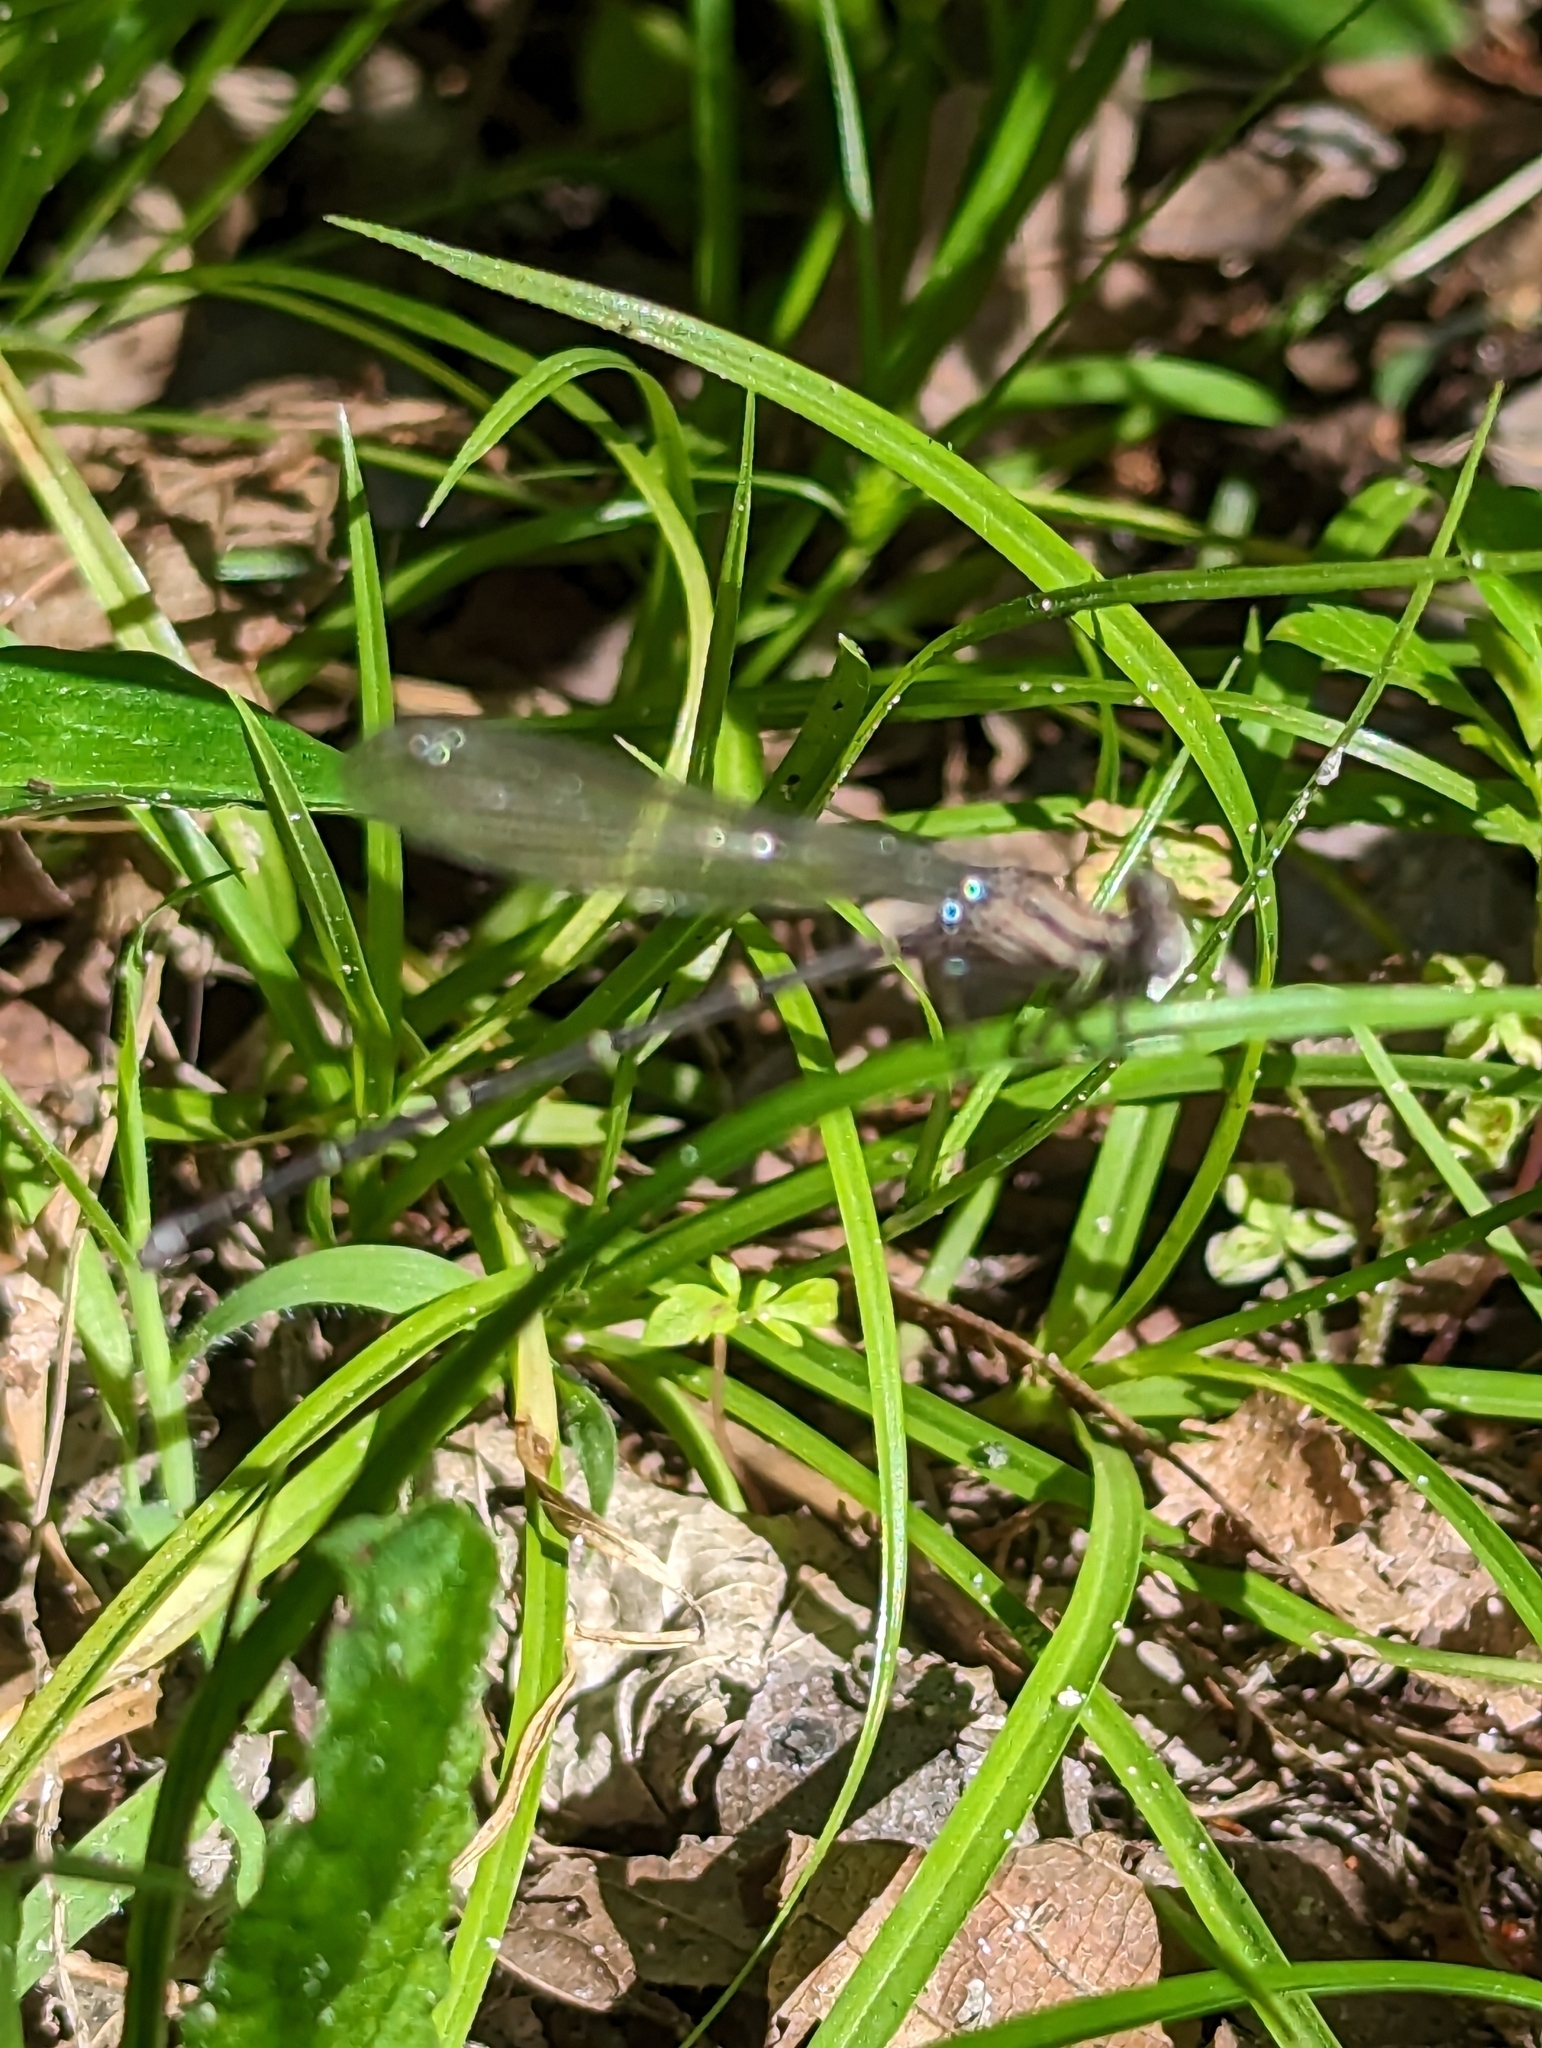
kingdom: Animalia
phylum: Arthropoda
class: Insecta
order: Odonata
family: Coenagrionidae
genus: Argia
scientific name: Argia moesta
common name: Powdered dancer
